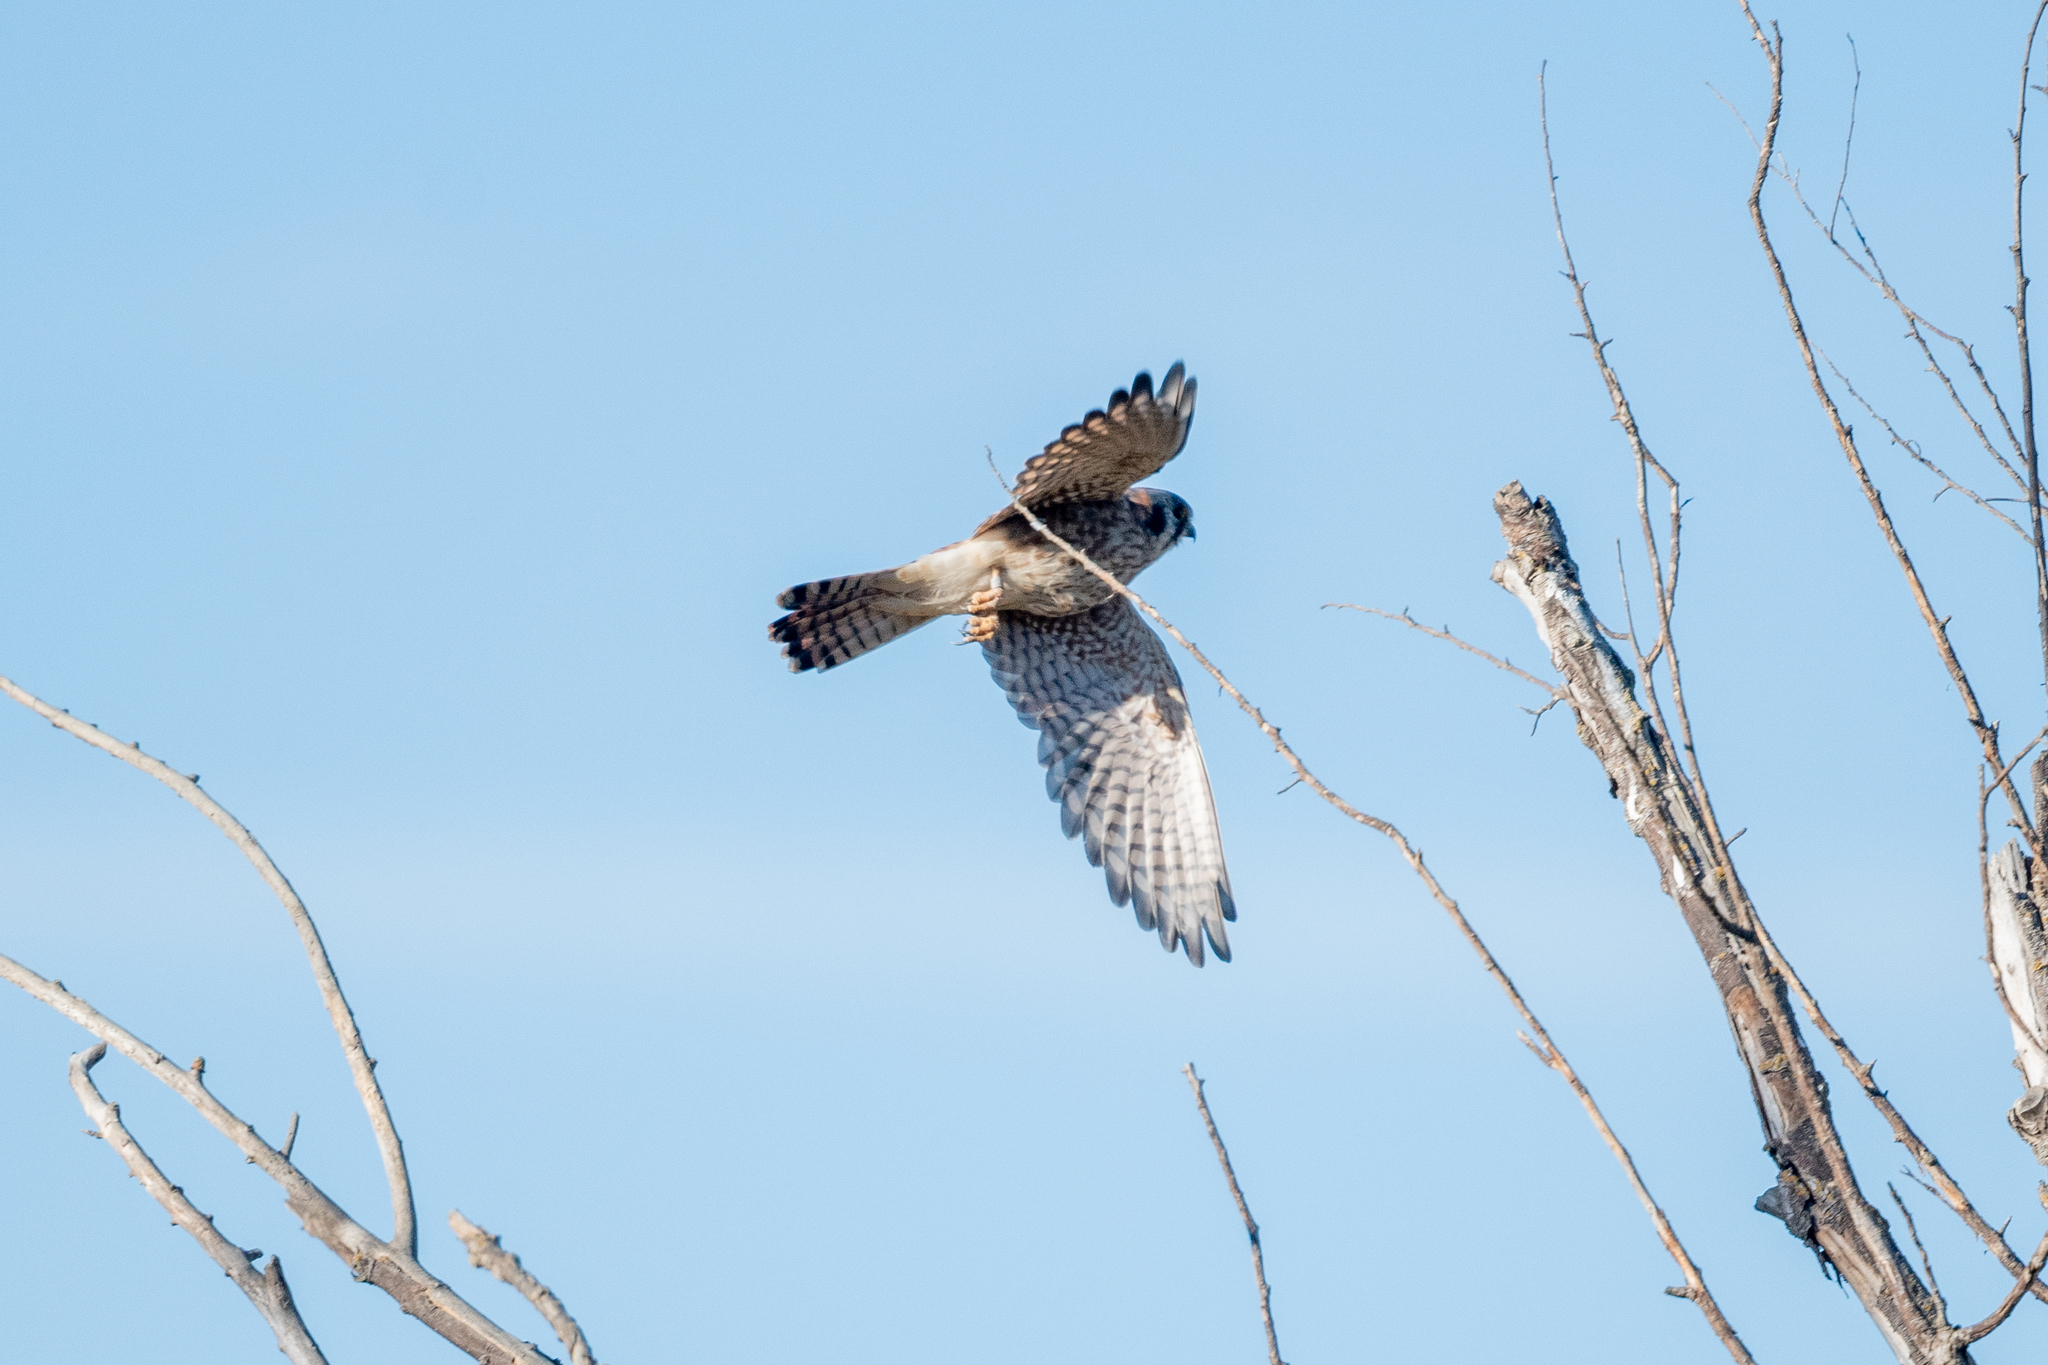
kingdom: Animalia
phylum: Chordata
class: Aves
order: Falconiformes
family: Falconidae
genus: Falco
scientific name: Falco sparverius
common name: American kestrel
